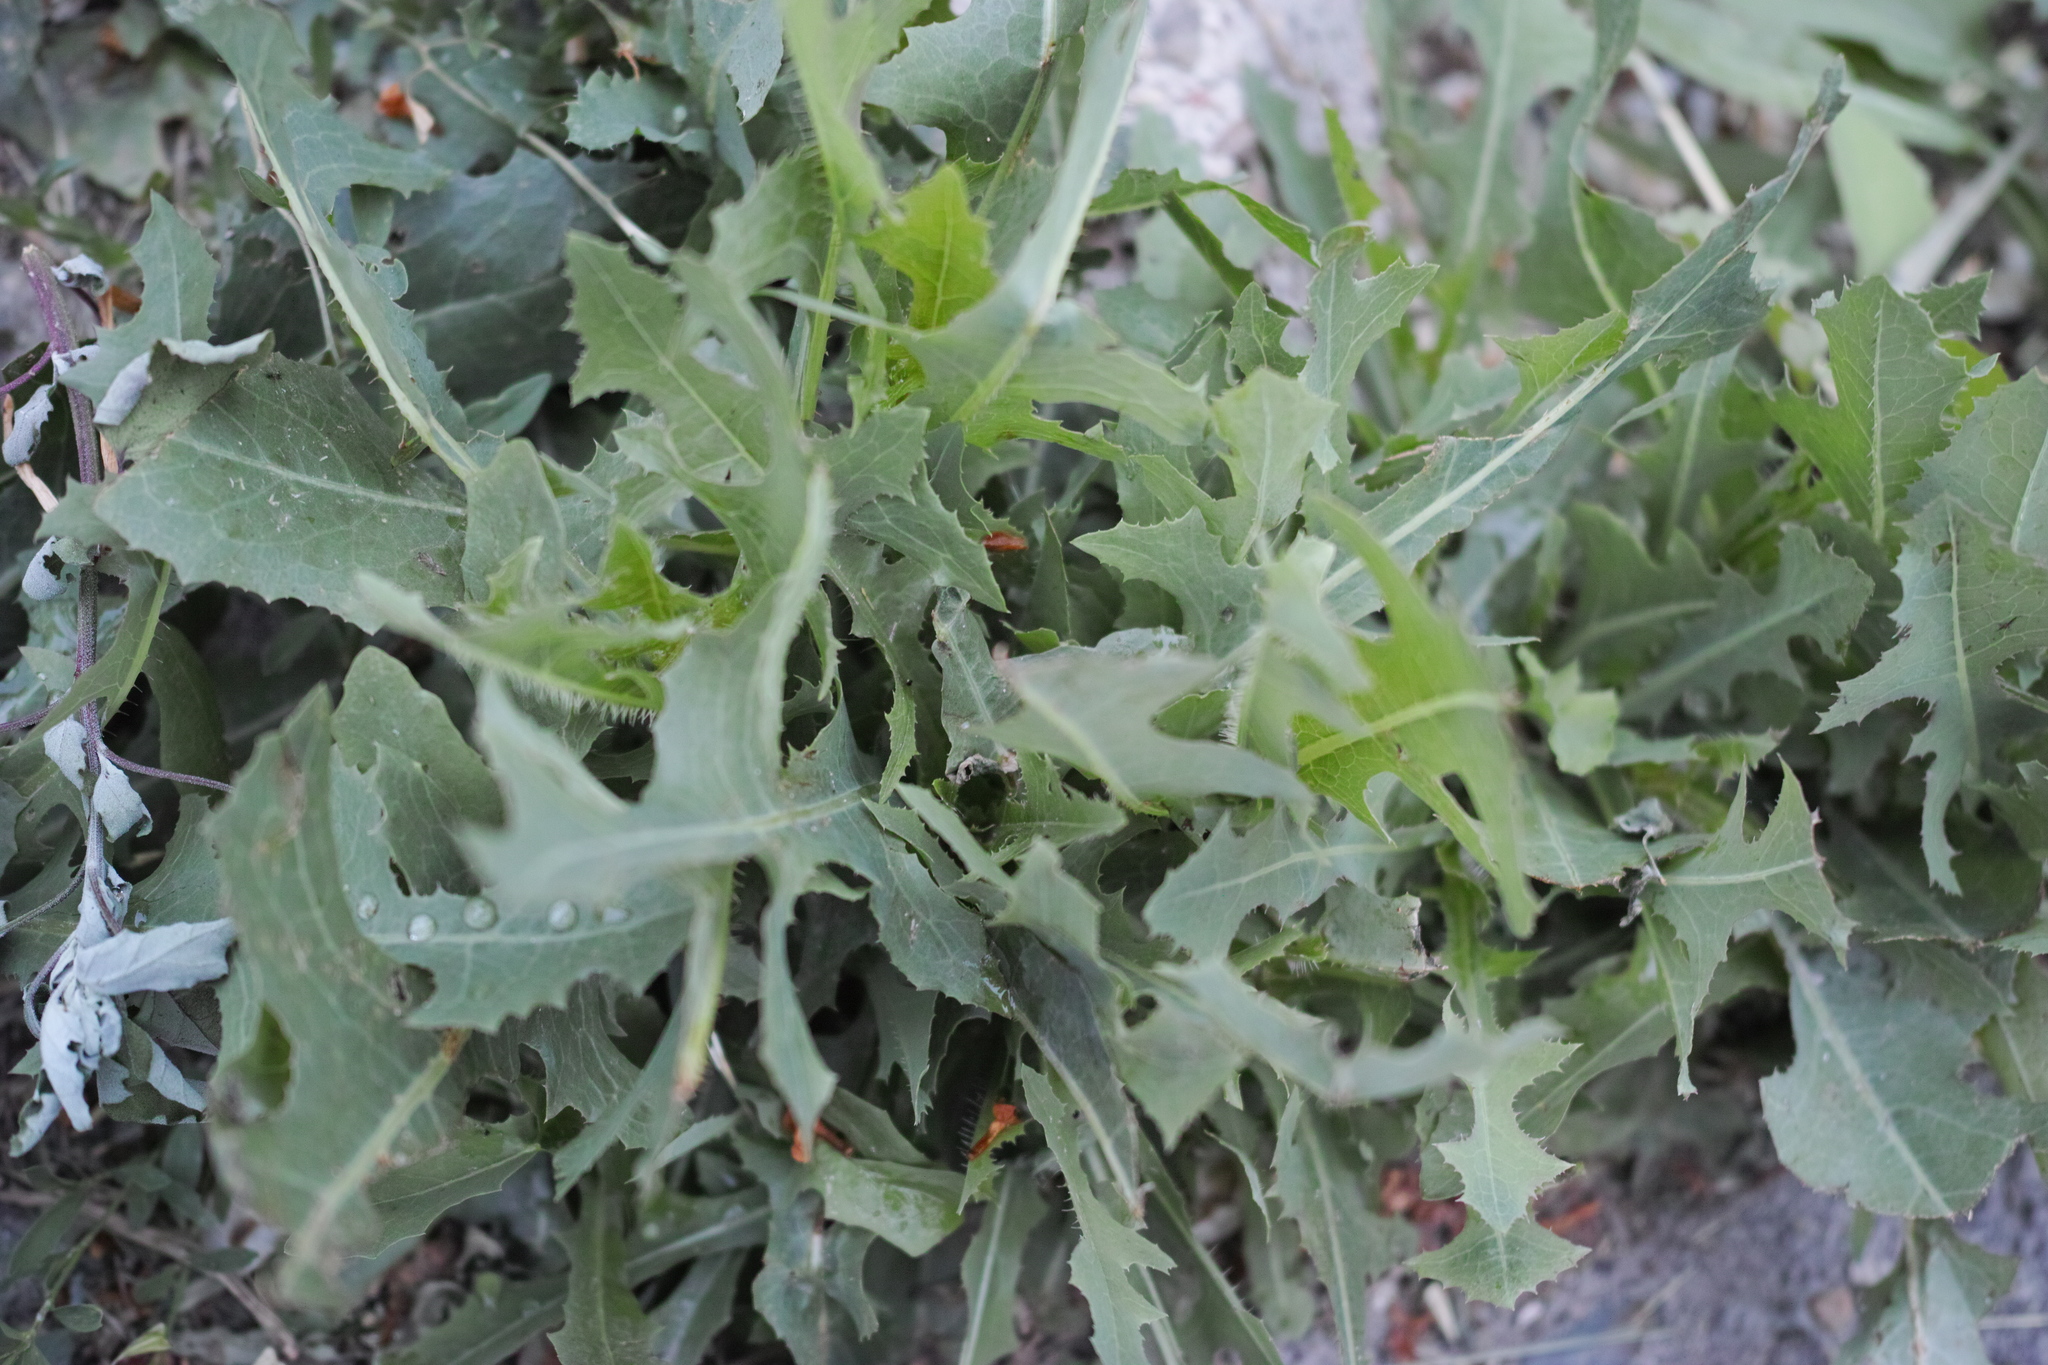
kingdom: Plantae
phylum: Tracheophyta
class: Magnoliopsida
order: Asterales
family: Asteraceae
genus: Lactuca
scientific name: Lactuca serriola
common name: Prickly lettuce
